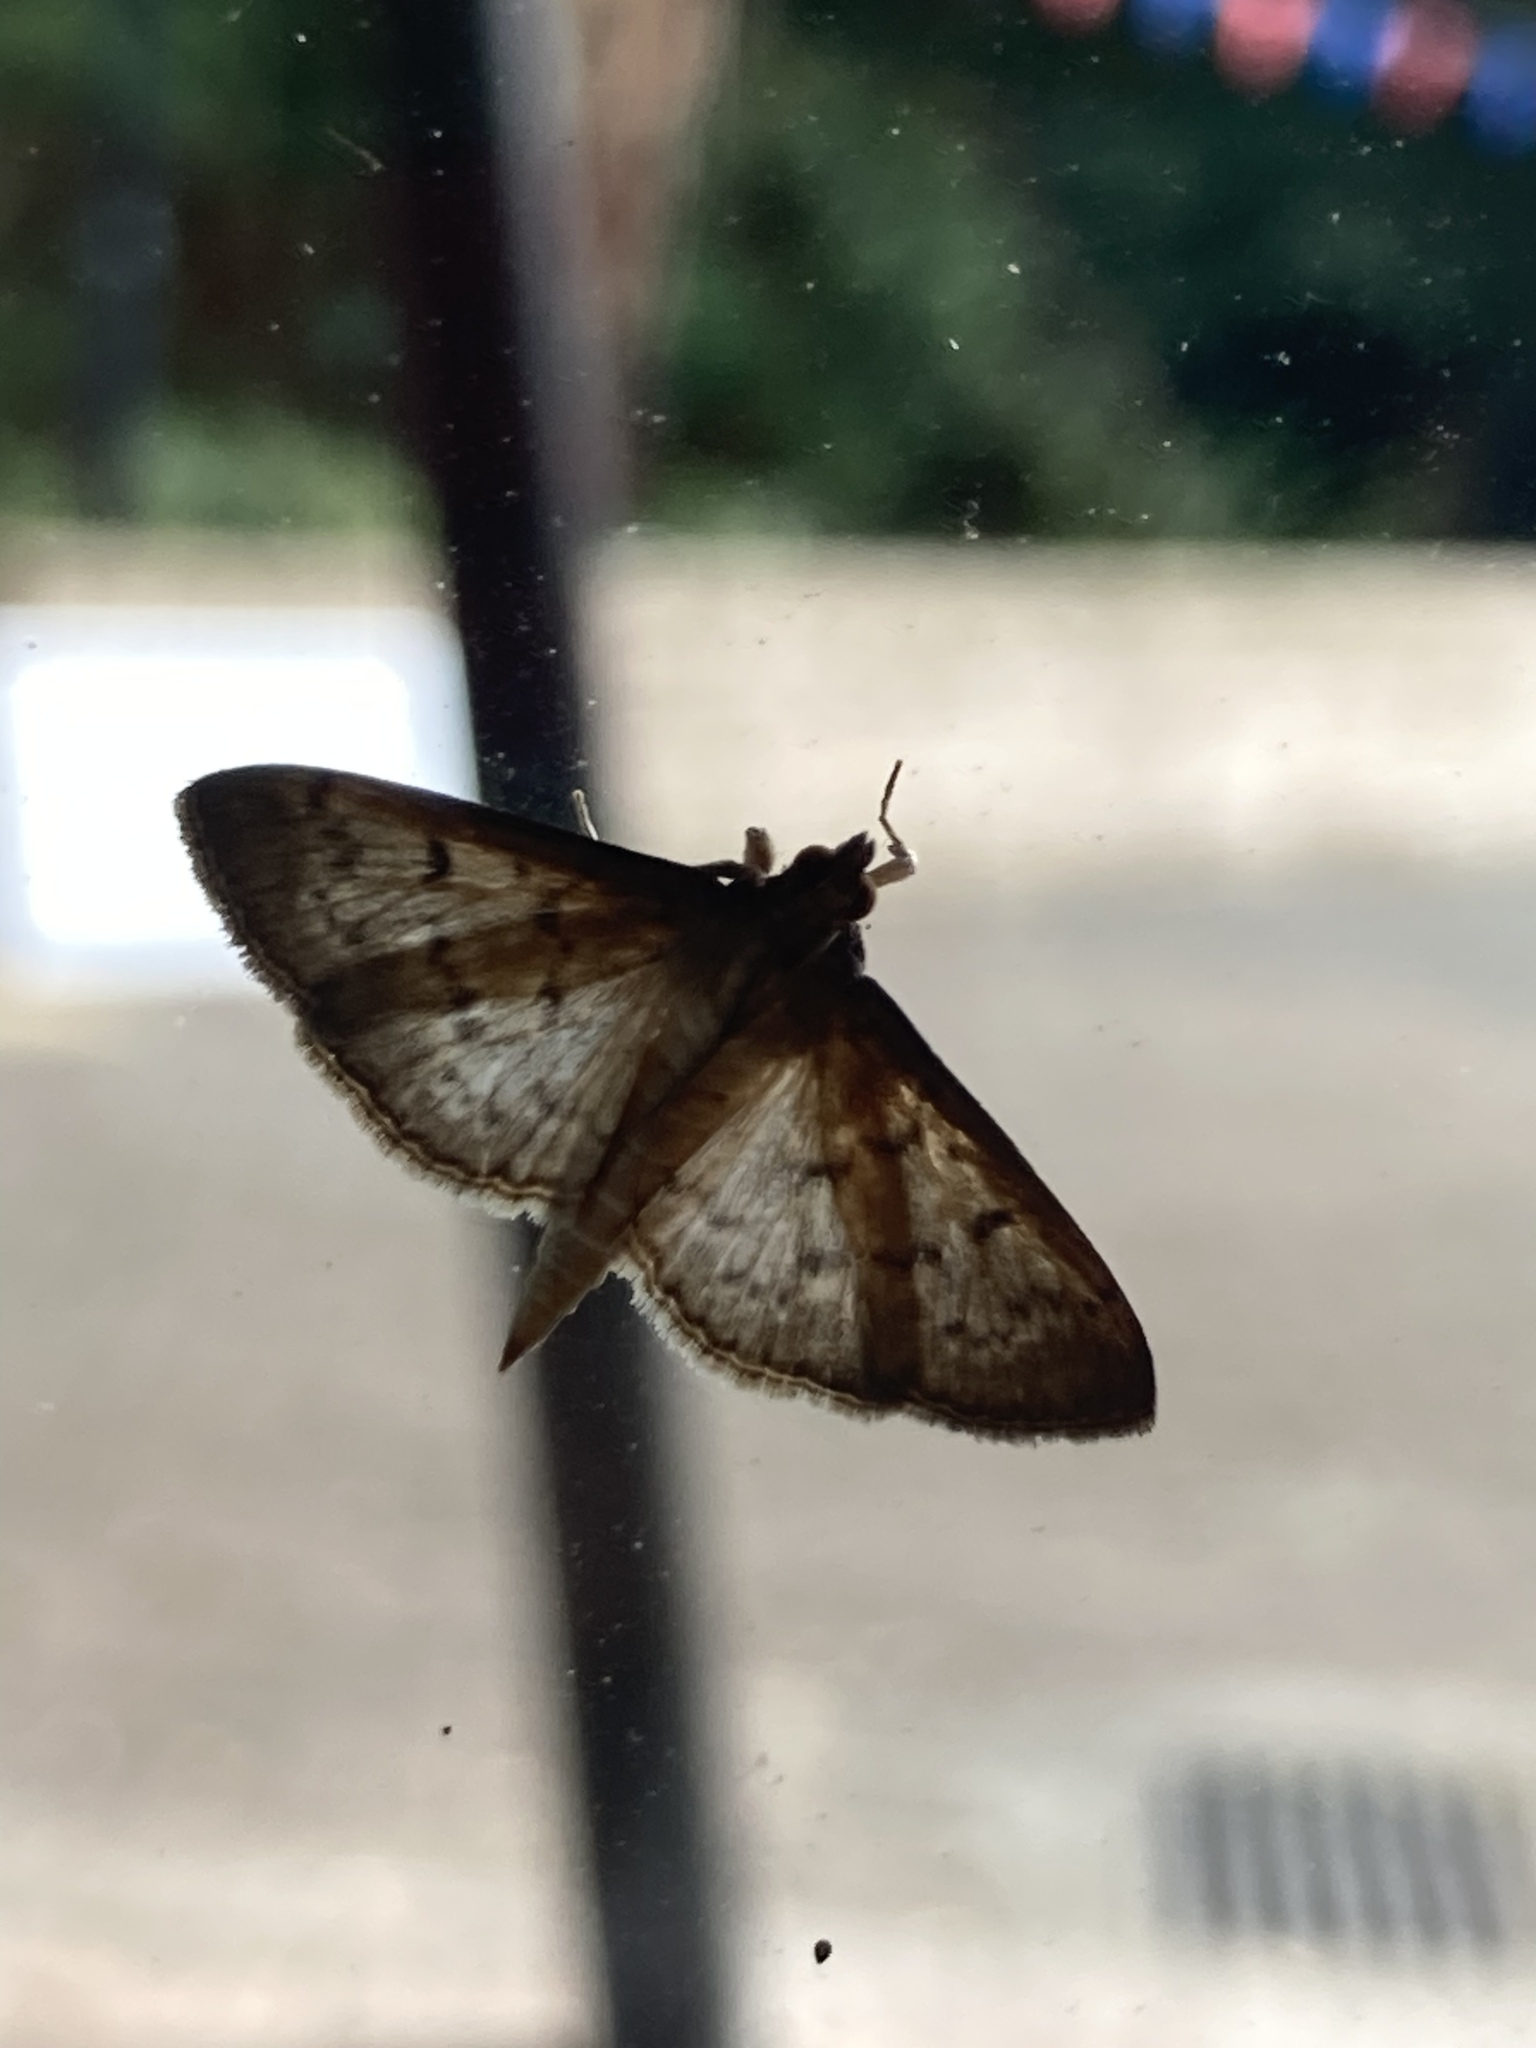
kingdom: Animalia
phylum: Arthropoda
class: Insecta
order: Lepidoptera
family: Crambidae
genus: Herpetogramma
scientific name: Herpetogramma licarsisalis
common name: Grass webworm
